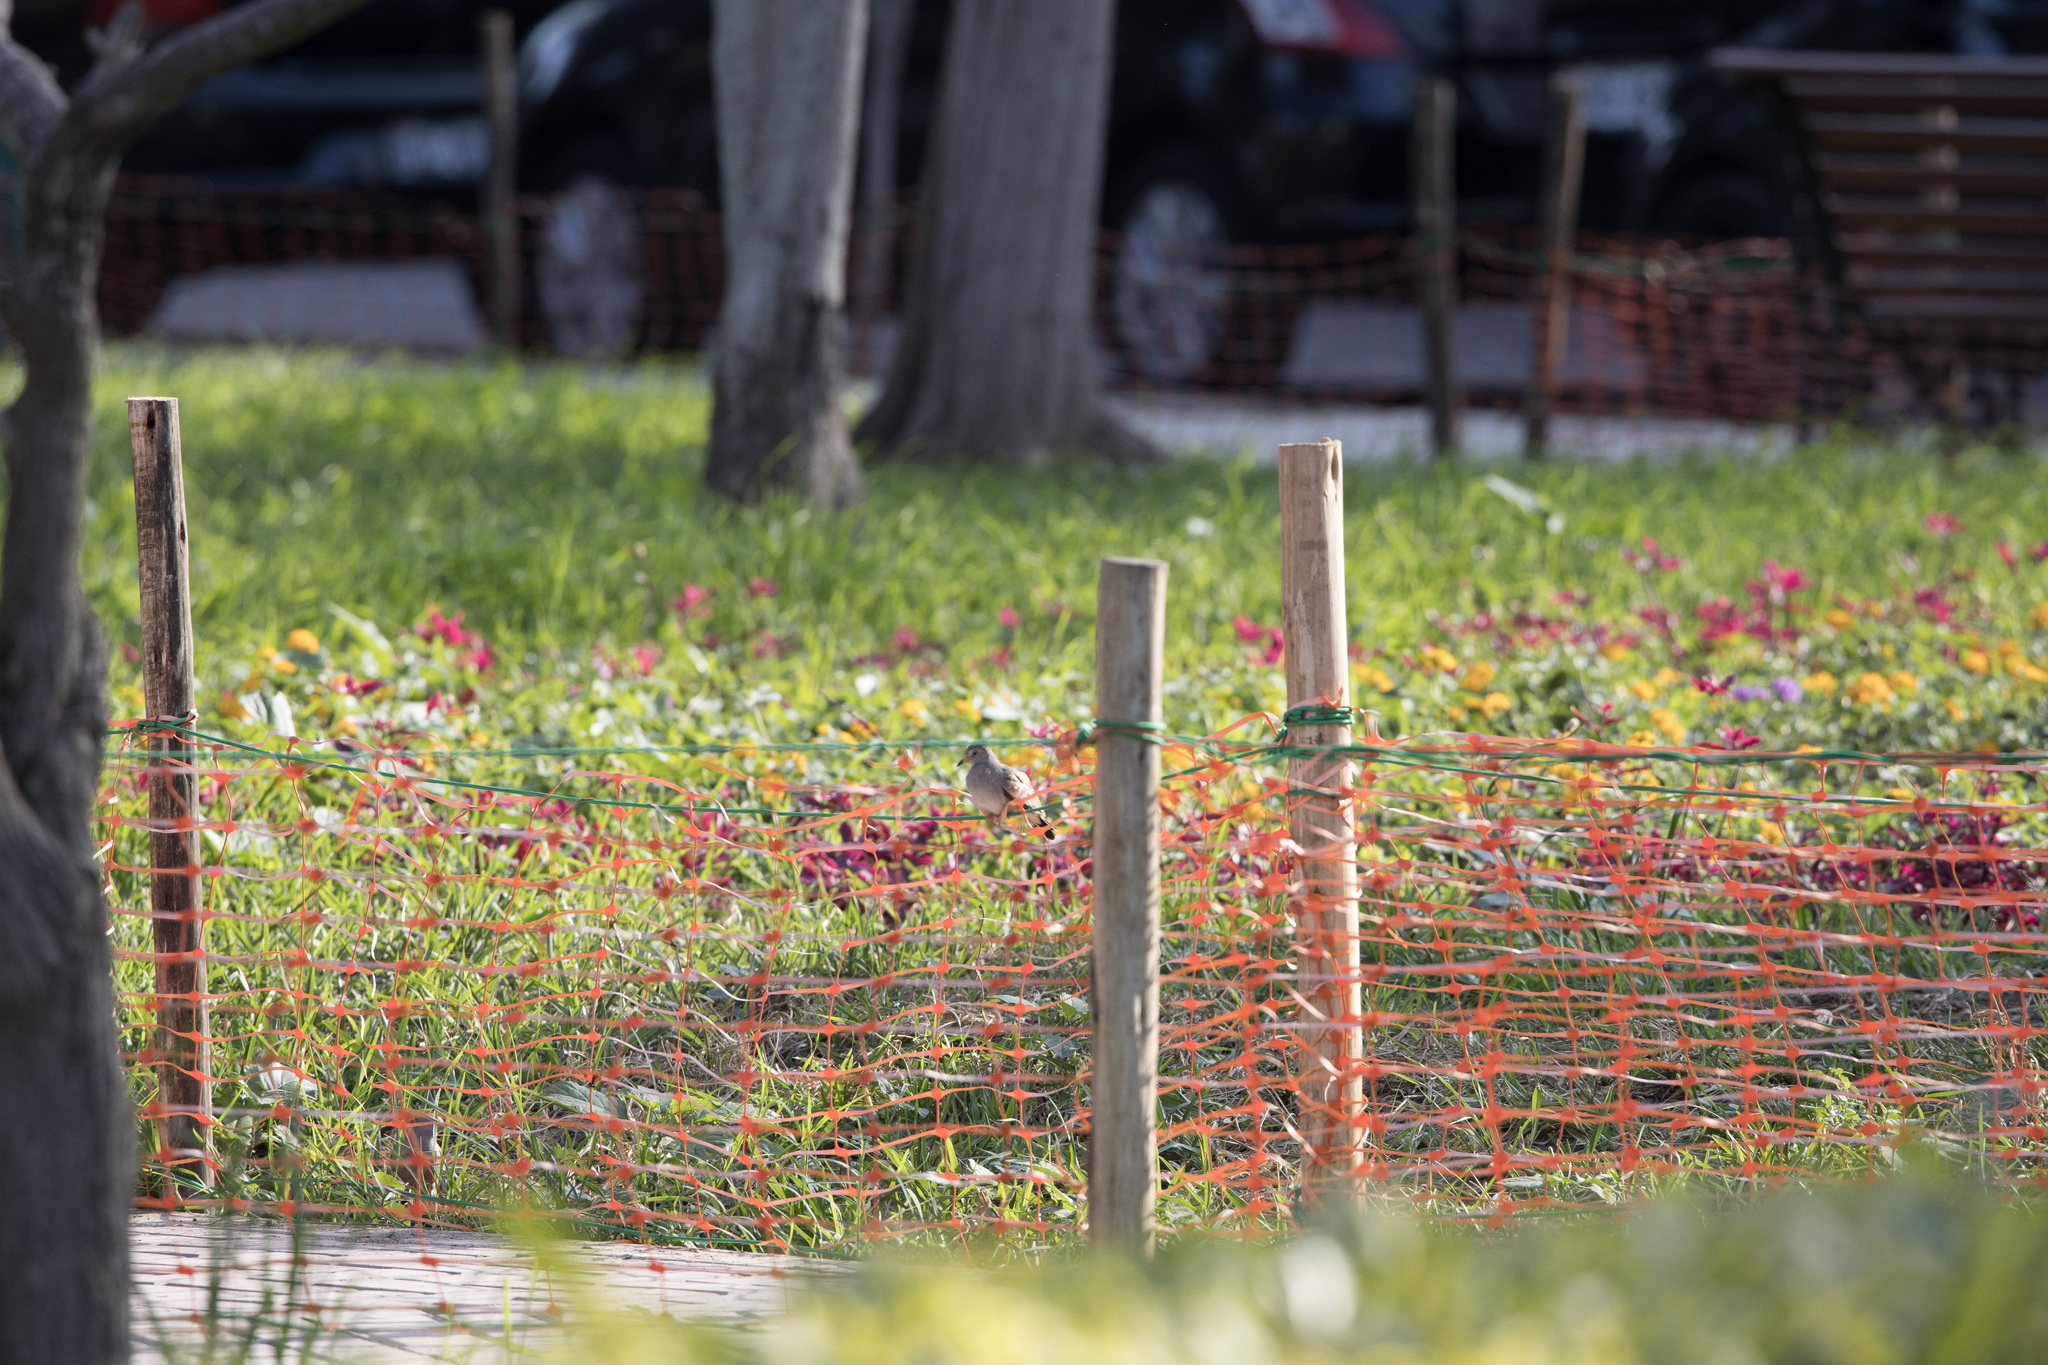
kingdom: Animalia
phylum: Chordata
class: Aves
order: Columbiformes
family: Columbidae
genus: Columbina
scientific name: Columbina cruziana
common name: Croaking ground dove
